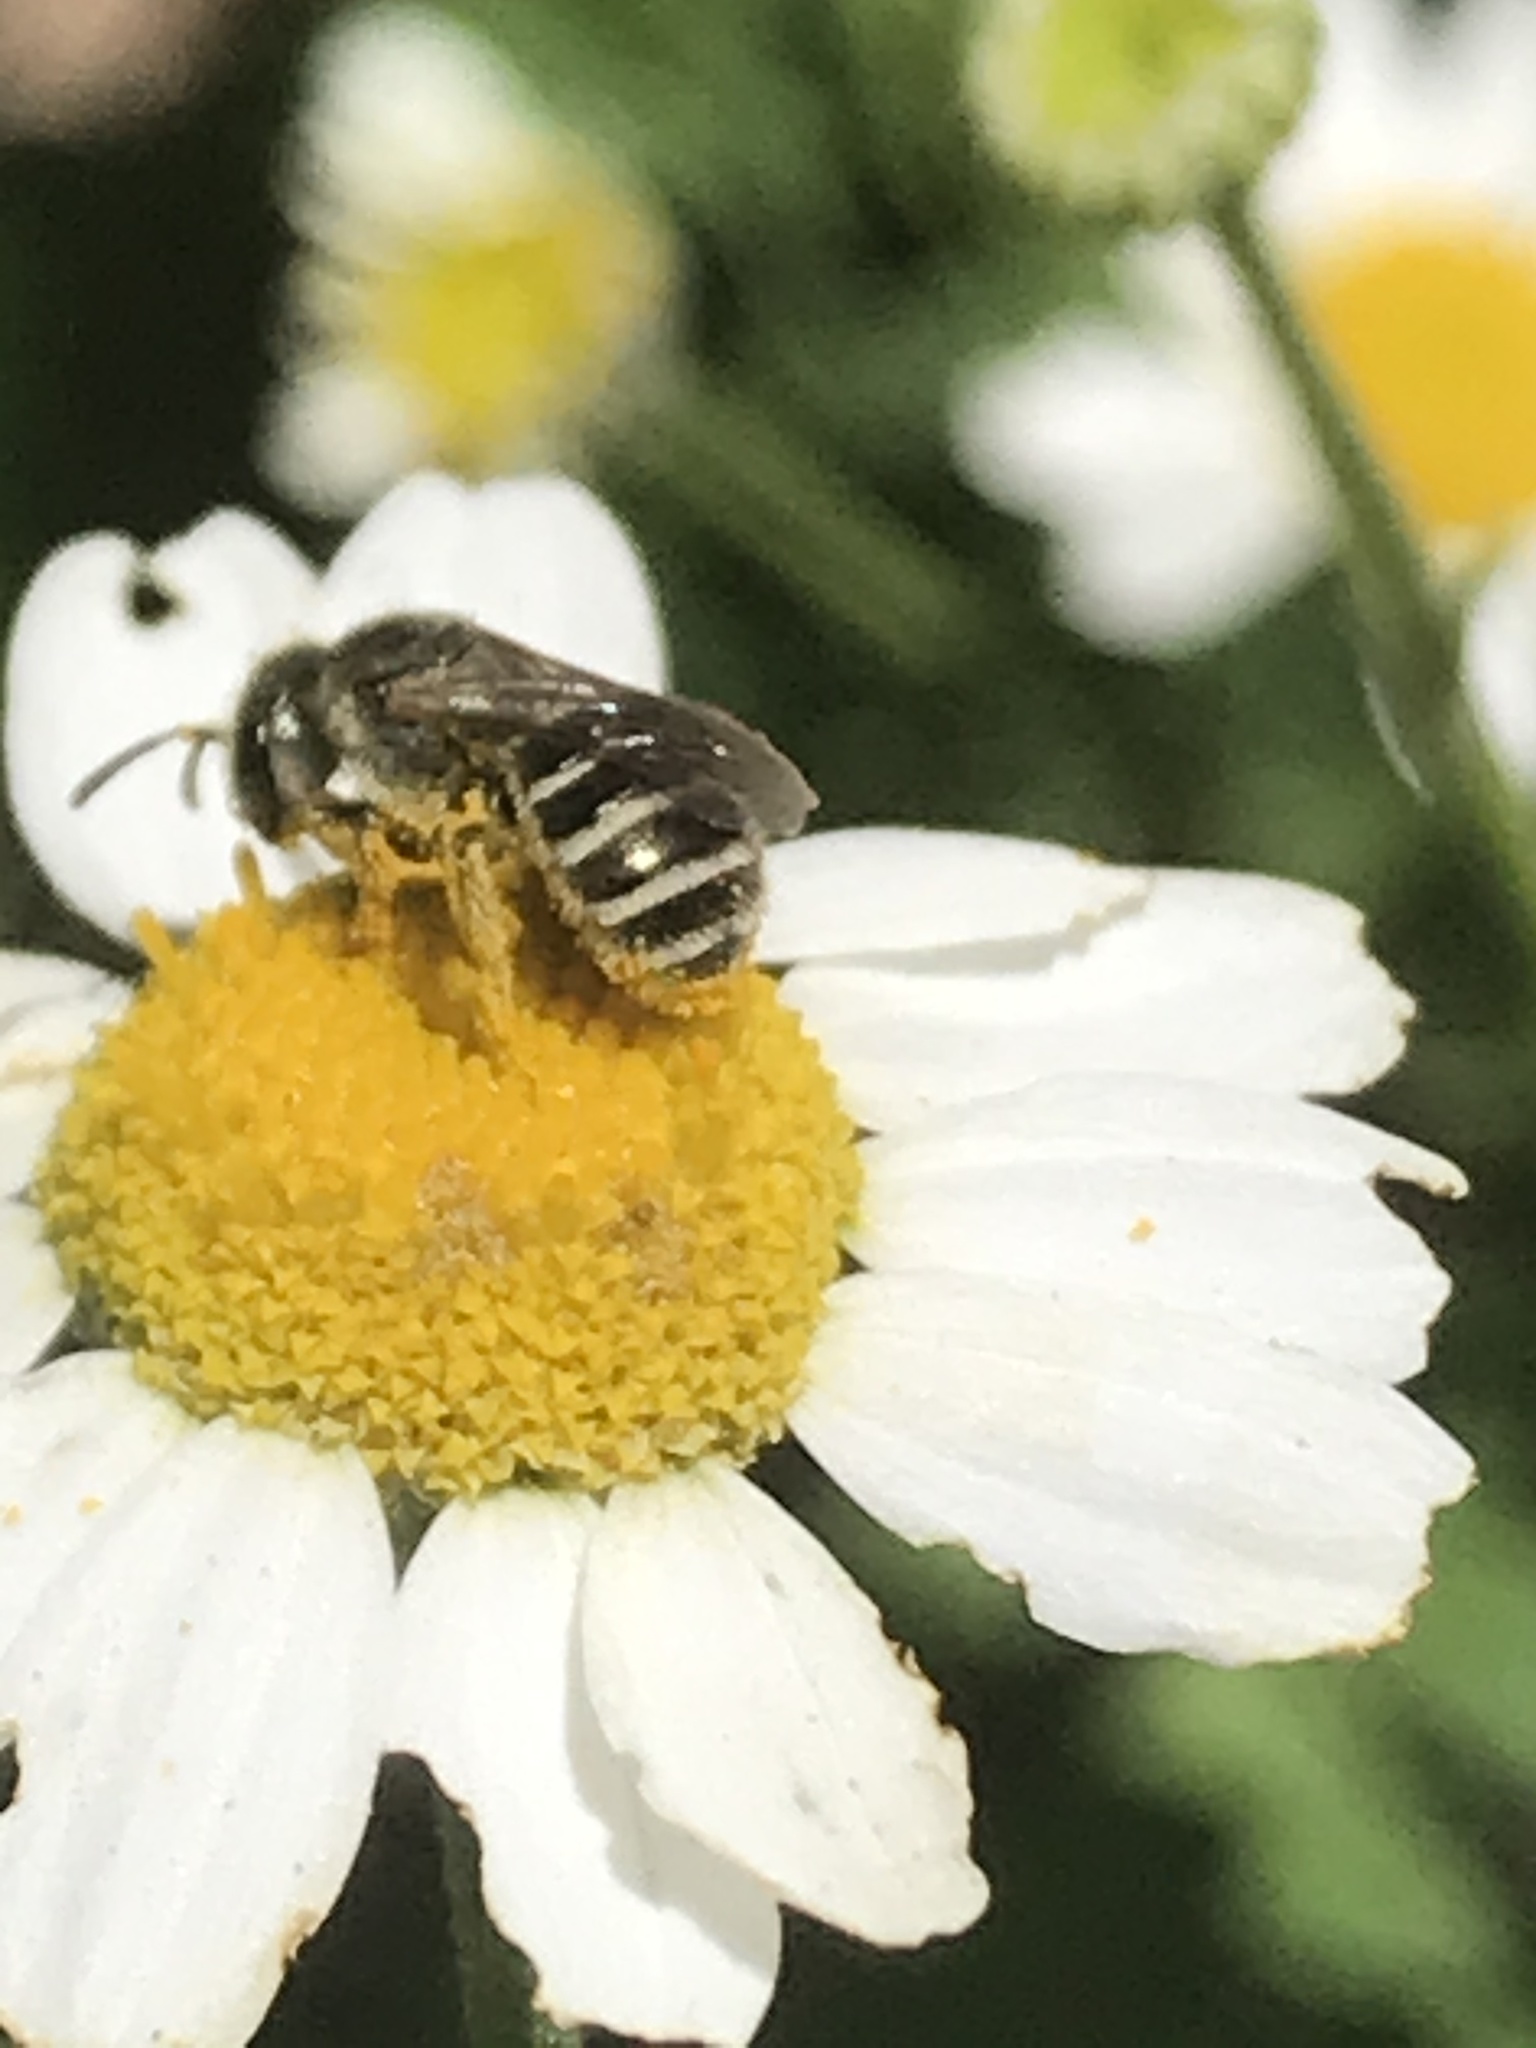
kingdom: Animalia
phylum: Arthropoda
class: Insecta
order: Hymenoptera
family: Halictidae
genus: Halictus
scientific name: Halictus tripartitus
